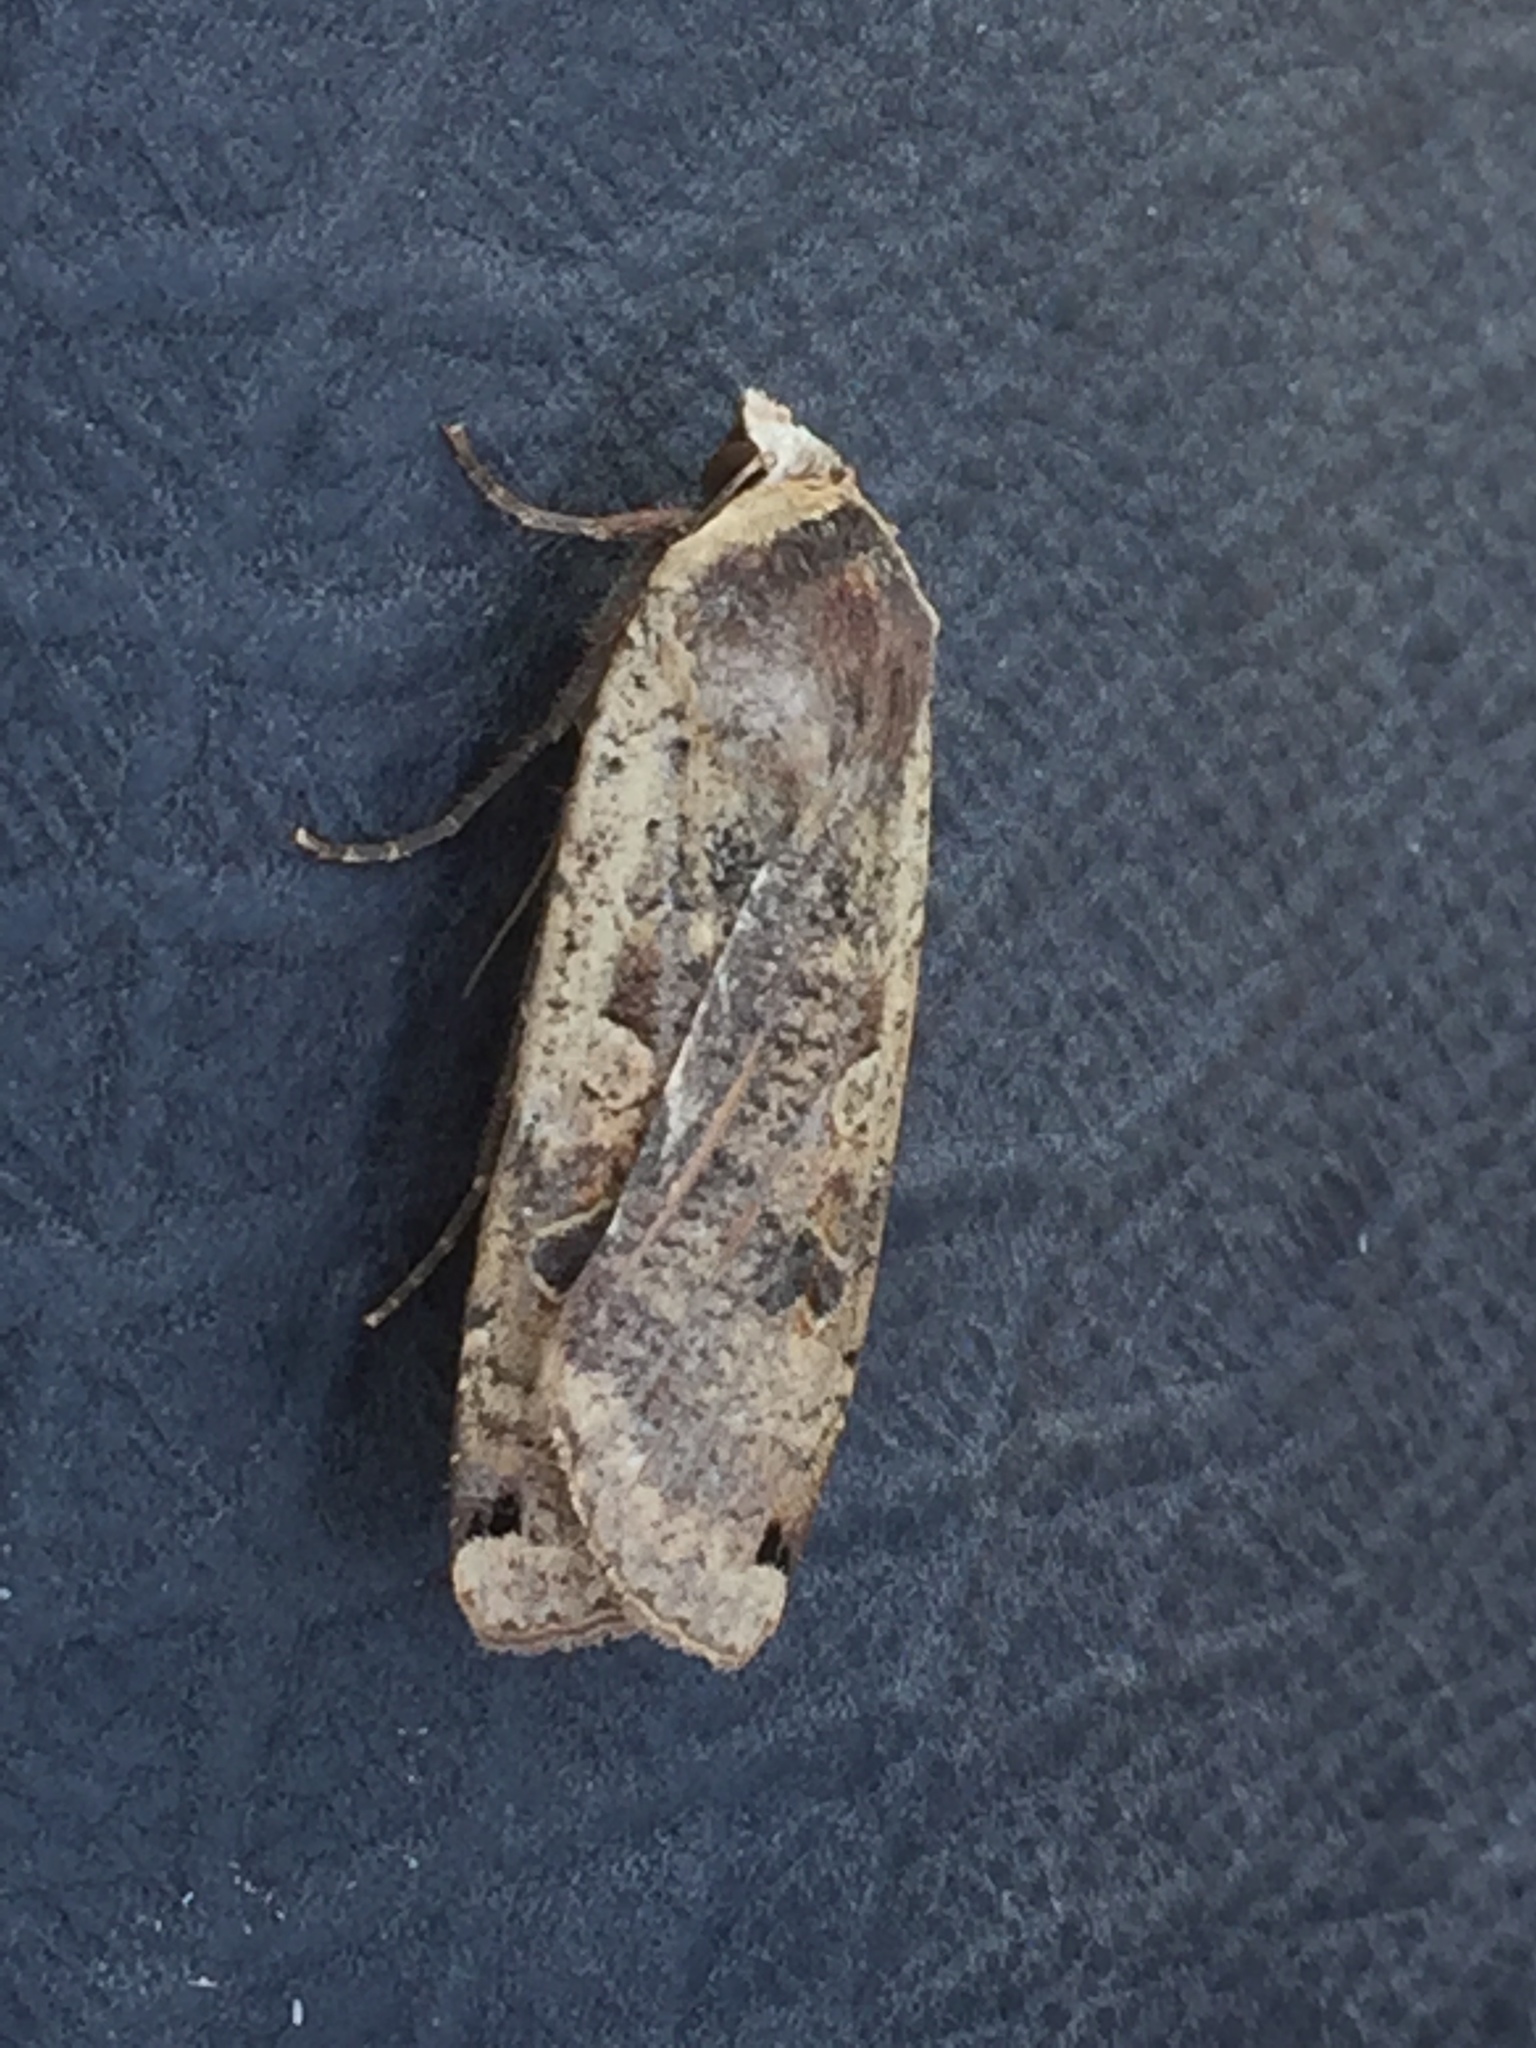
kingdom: Animalia
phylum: Arthropoda
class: Insecta
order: Lepidoptera
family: Noctuidae
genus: Noctua
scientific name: Noctua pronuba
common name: Large yellow underwing
